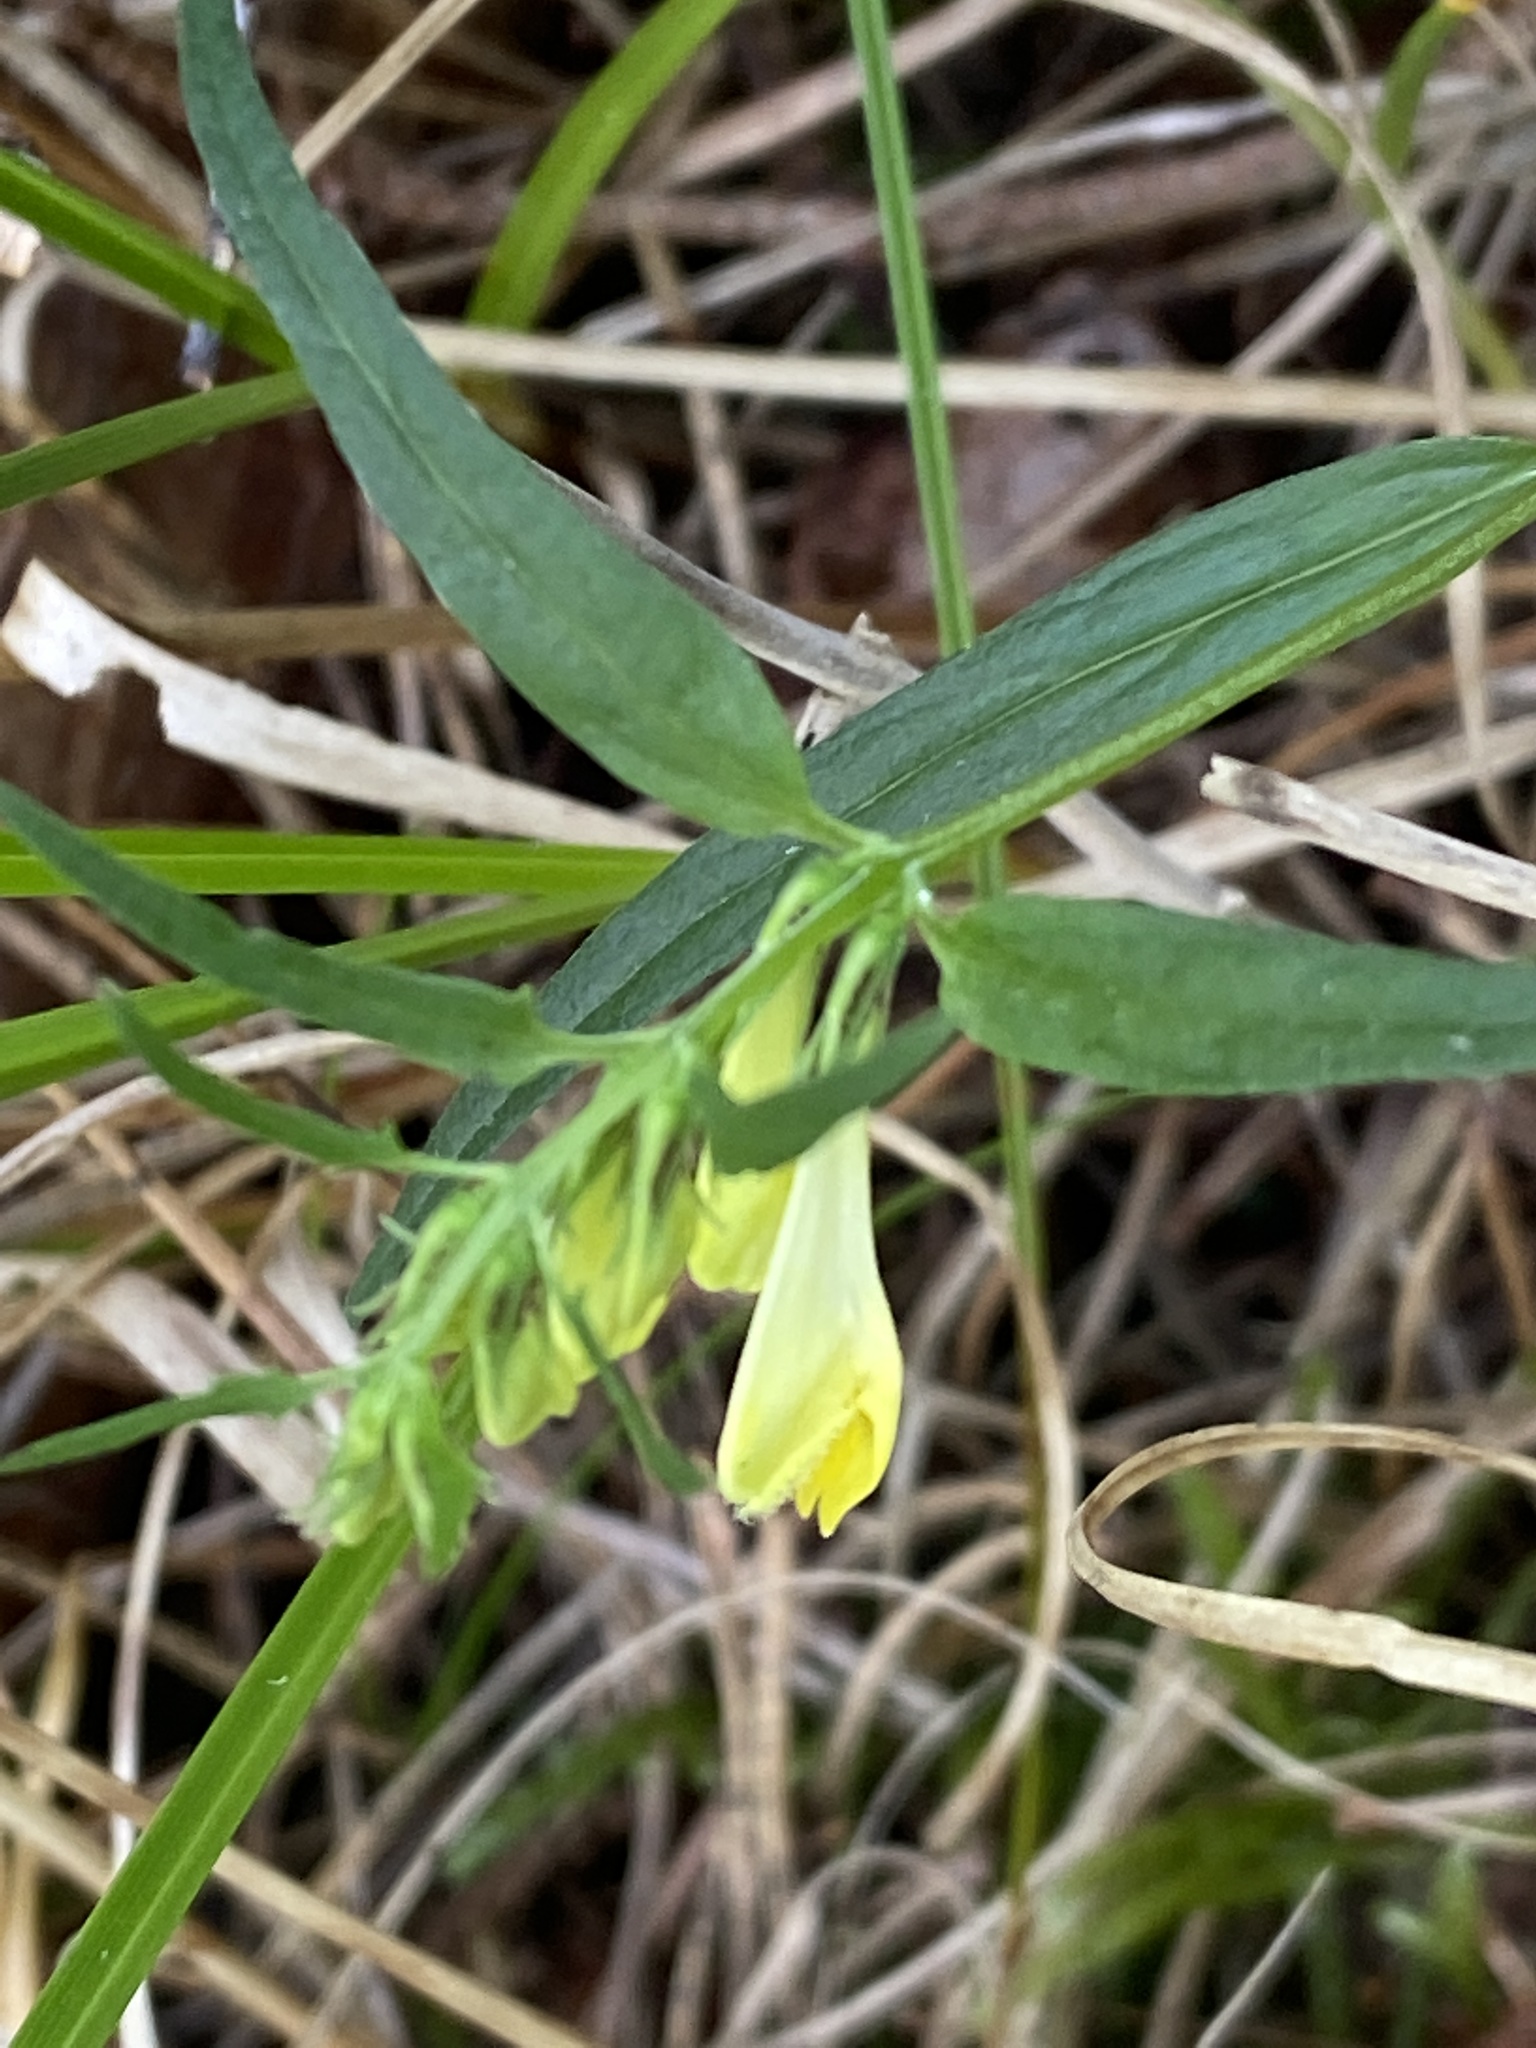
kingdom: Plantae
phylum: Tracheophyta
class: Magnoliopsida
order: Lamiales
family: Orobanchaceae
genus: Melampyrum
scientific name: Melampyrum pratense
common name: Common cow-wheat
